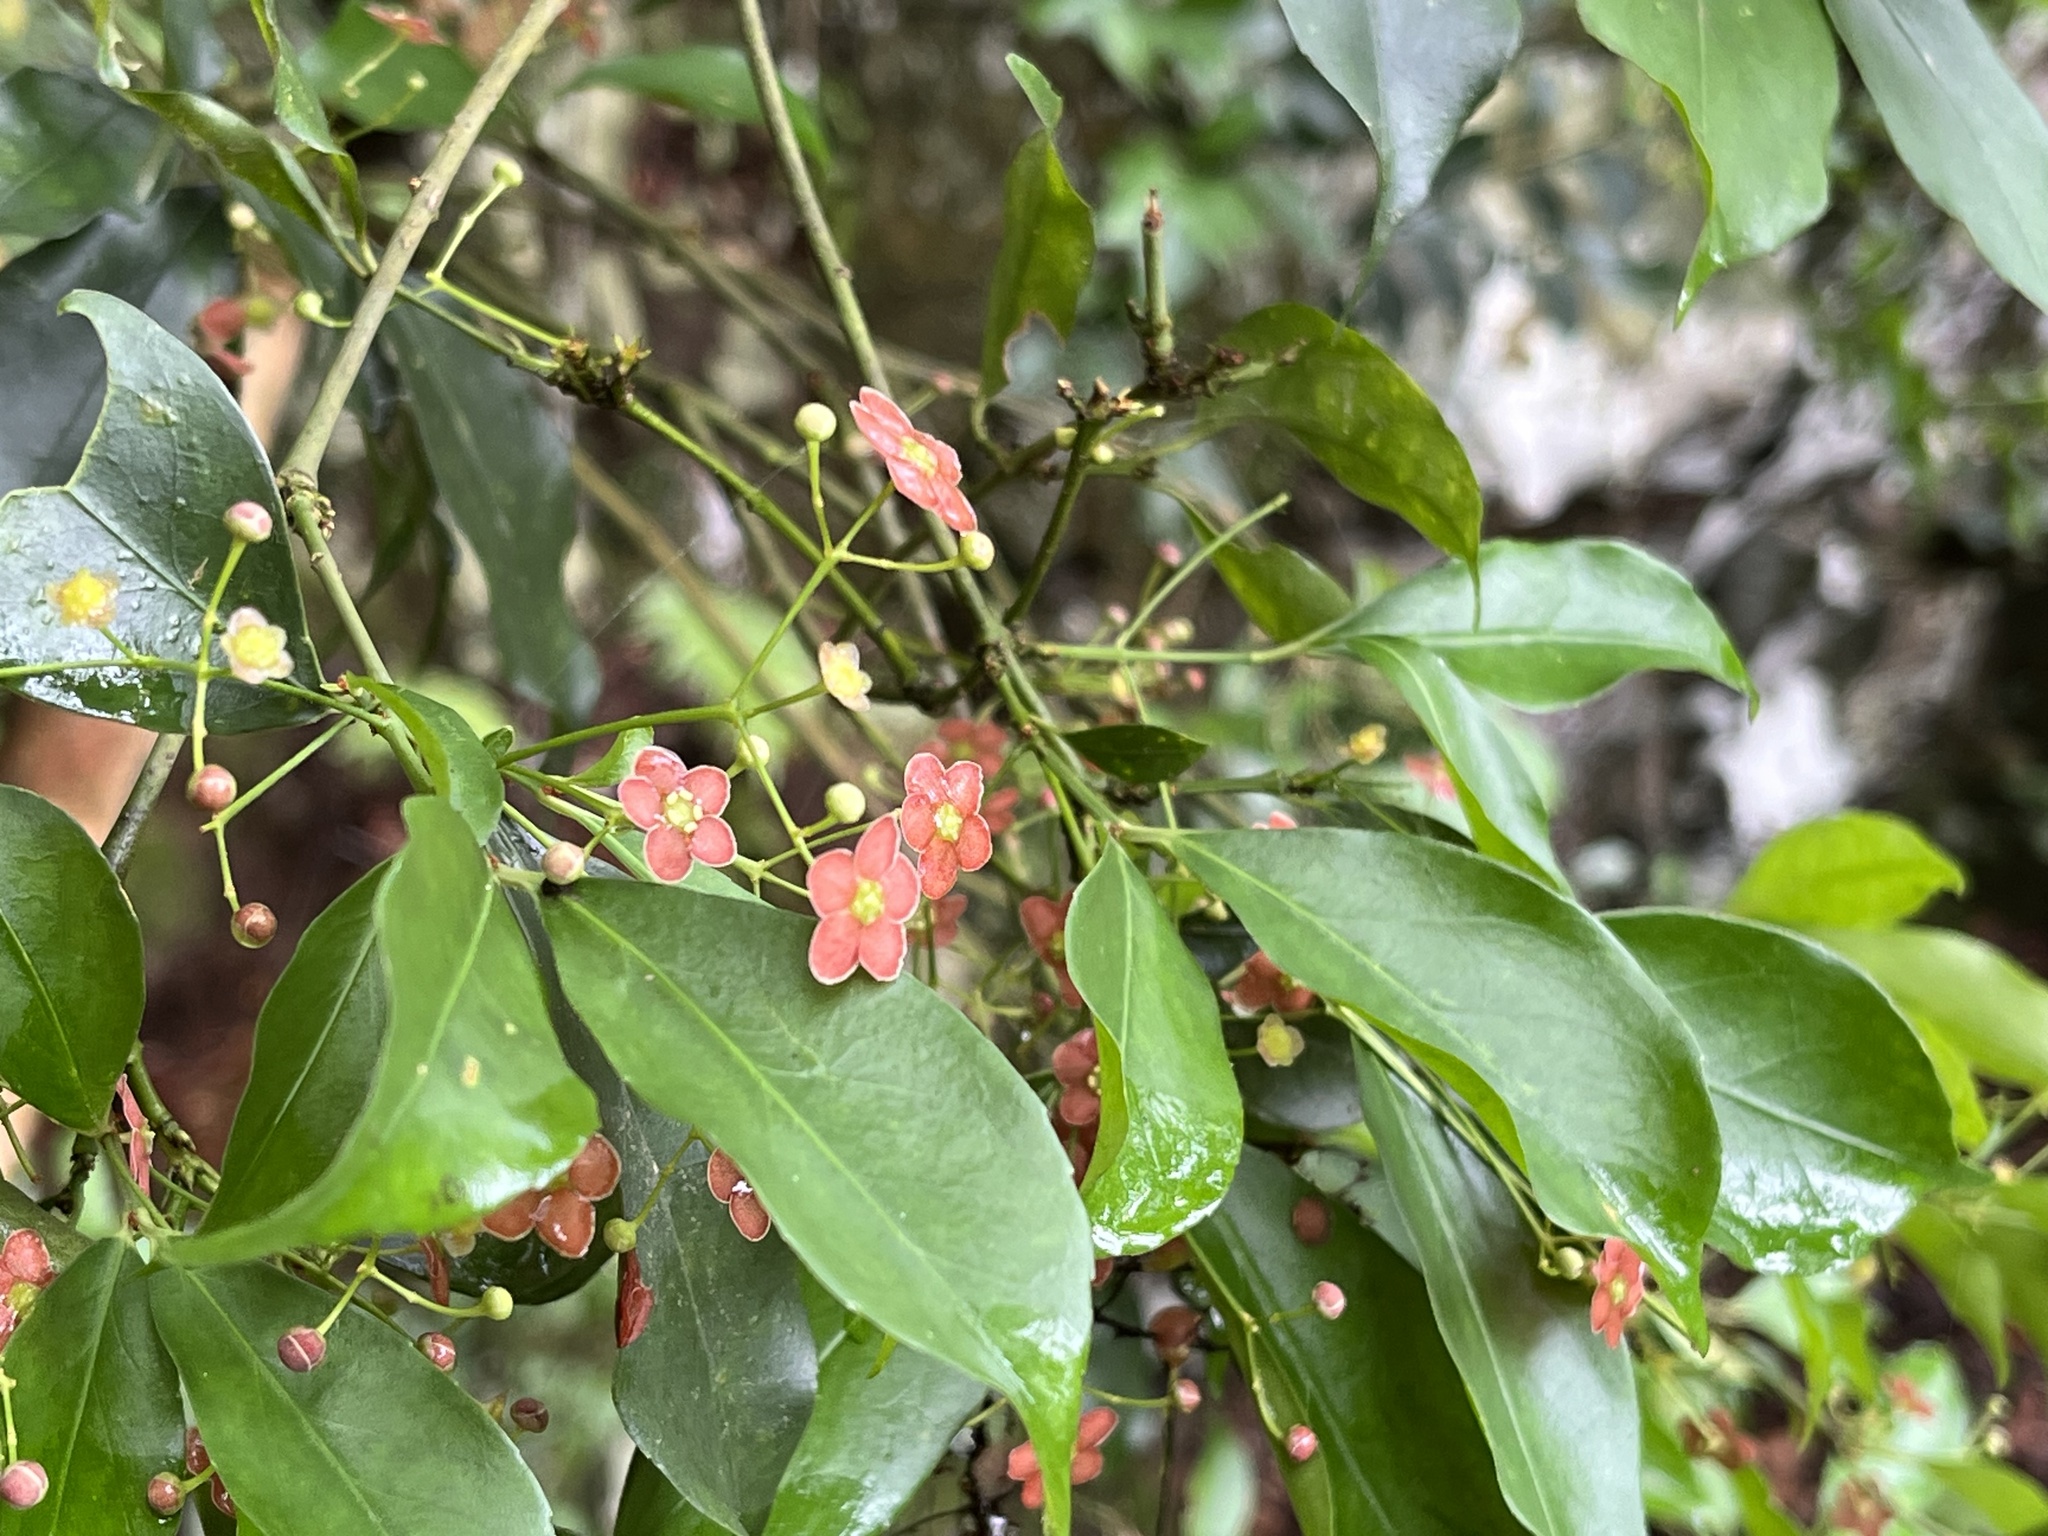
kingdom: Plantae
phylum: Tracheophyta
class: Magnoliopsida
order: Celastrales
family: Celastraceae
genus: Euonymus
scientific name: Euonymus laxiflorus
